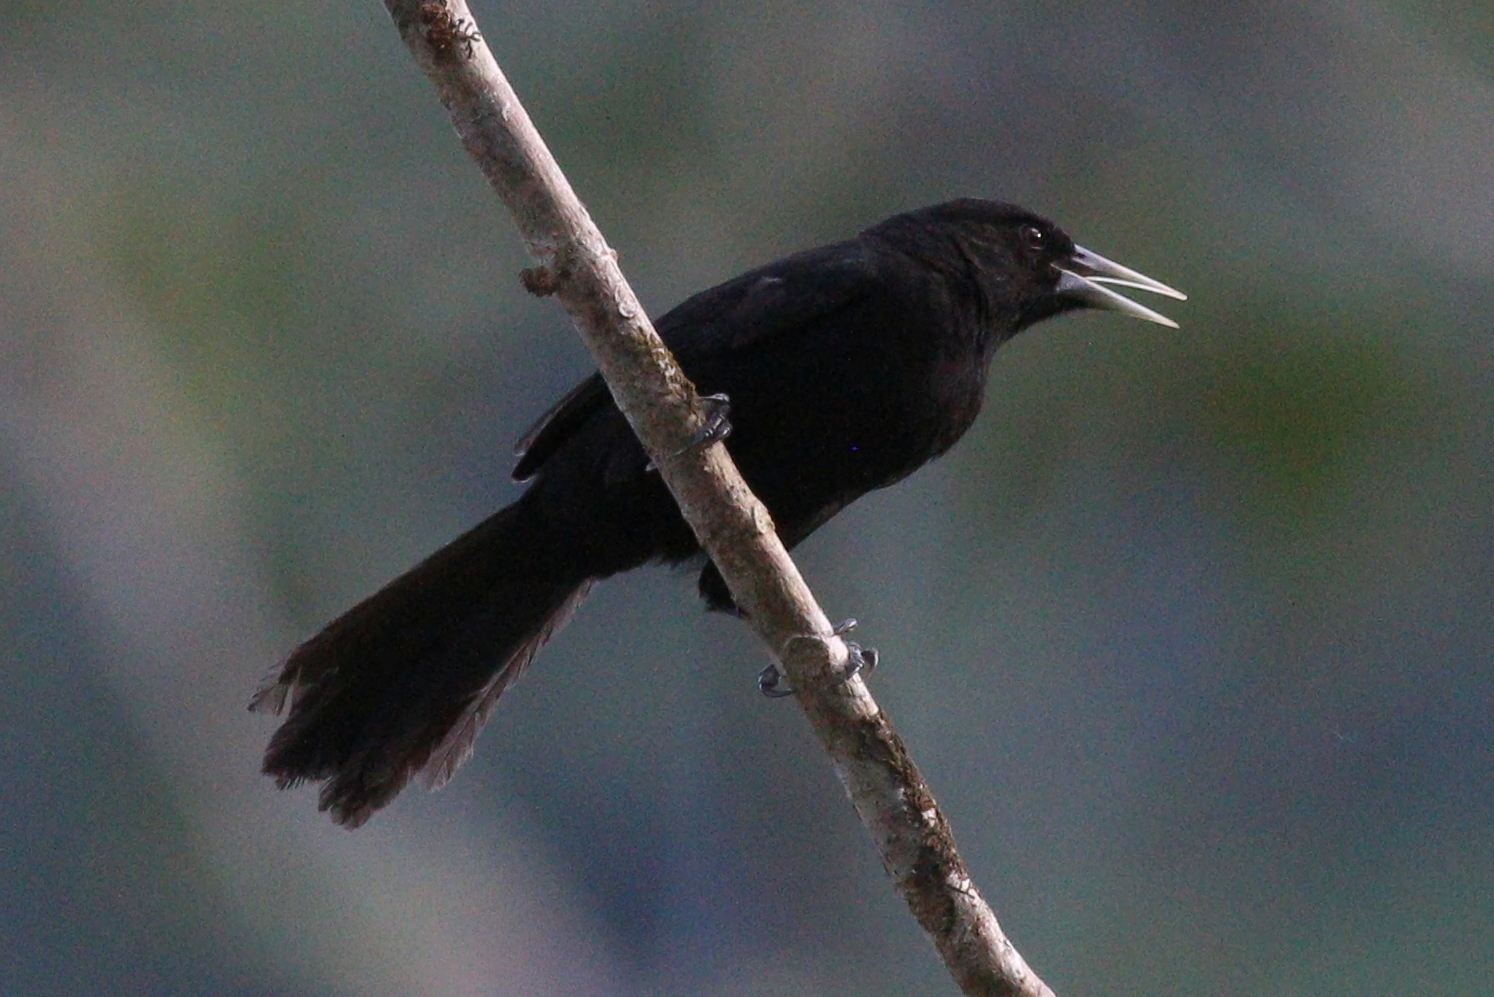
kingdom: Animalia
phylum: Chordata
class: Aves
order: Passeriformes
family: Icteridae
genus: Cacicus
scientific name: Cacicus solitarius
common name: Solitary cacique
